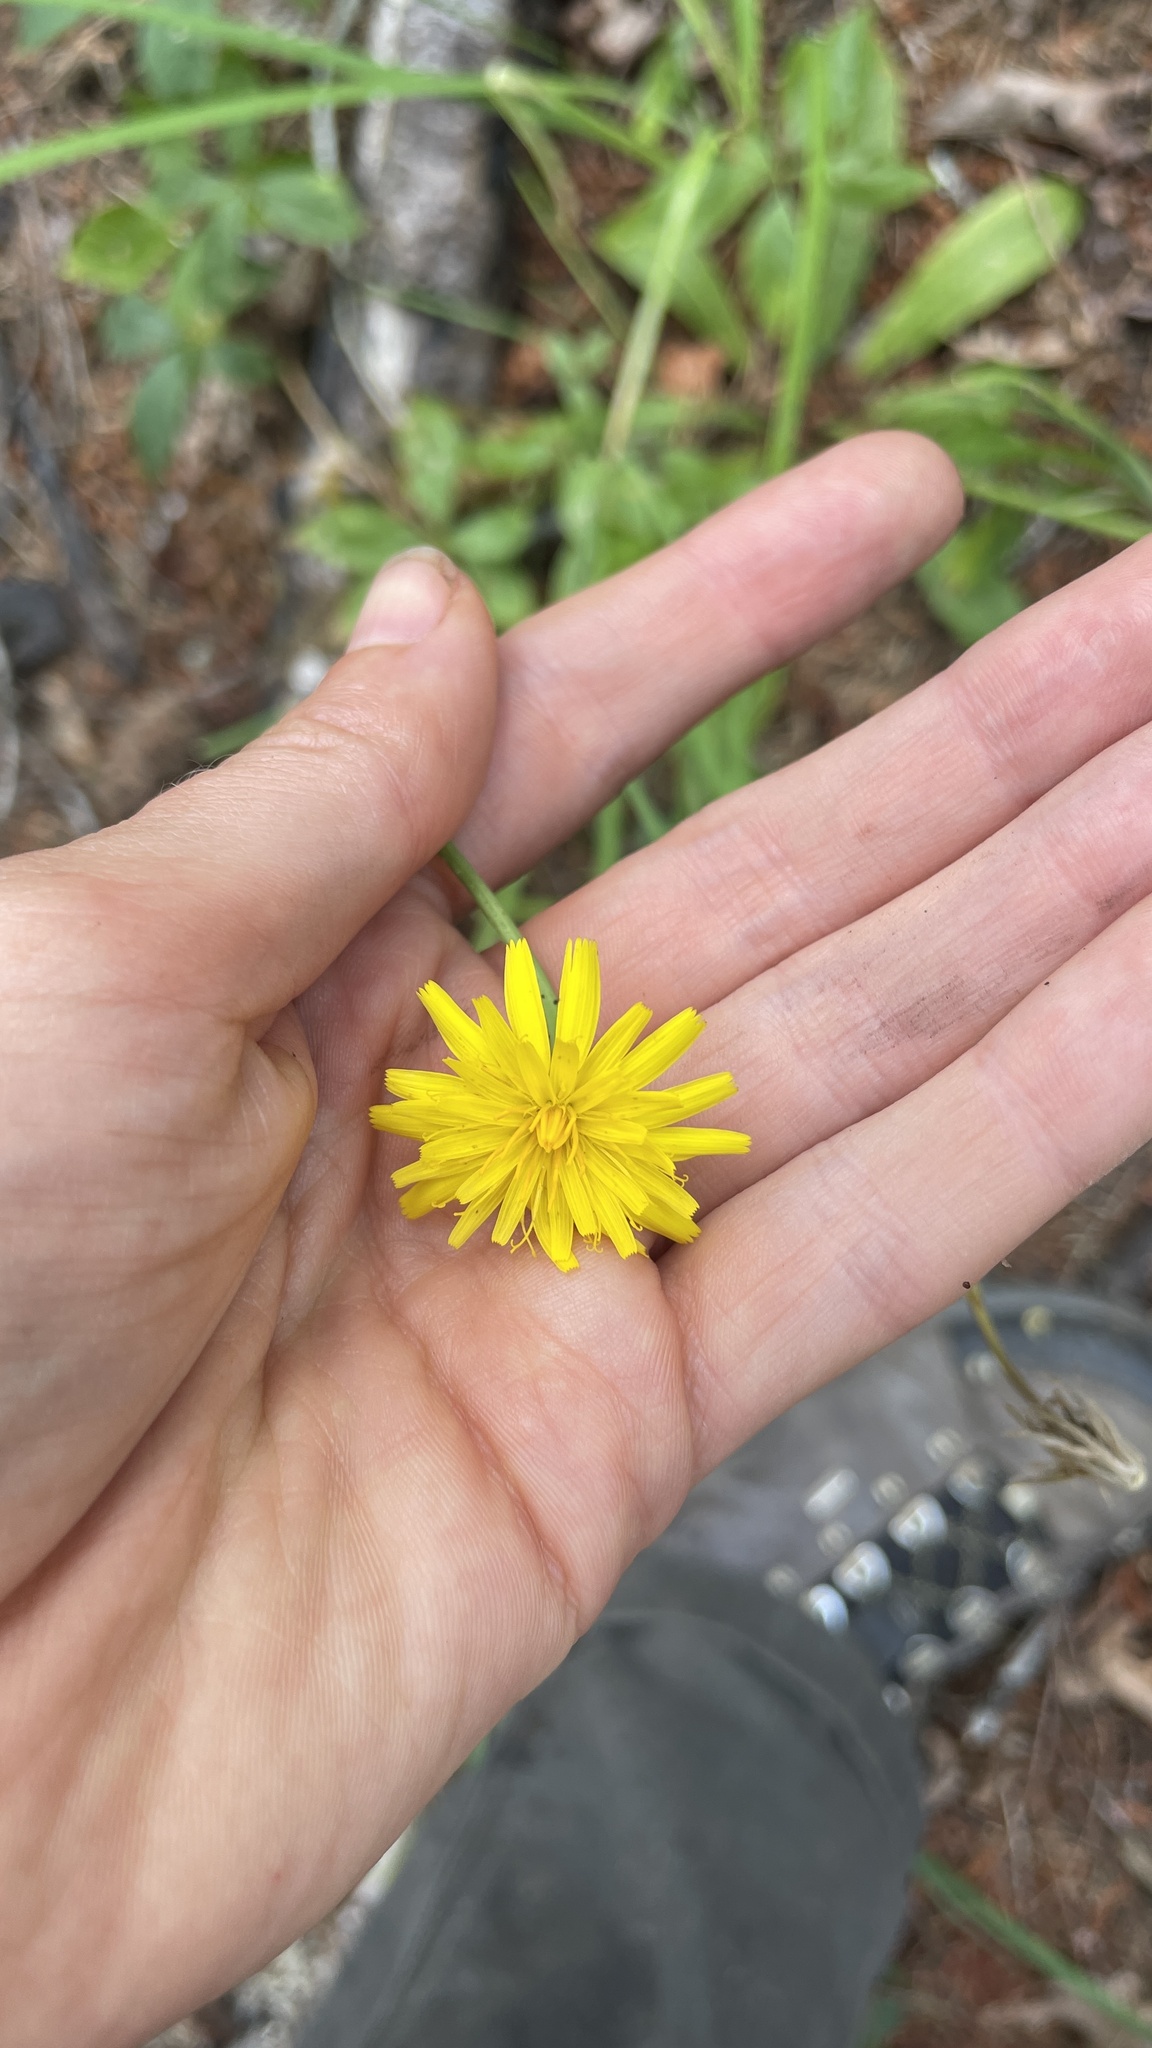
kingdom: Plantae
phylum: Tracheophyta
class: Magnoliopsida
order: Asterales
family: Asteraceae
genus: Hypochaeris
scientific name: Hypochaeris radicata
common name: Flatweed
